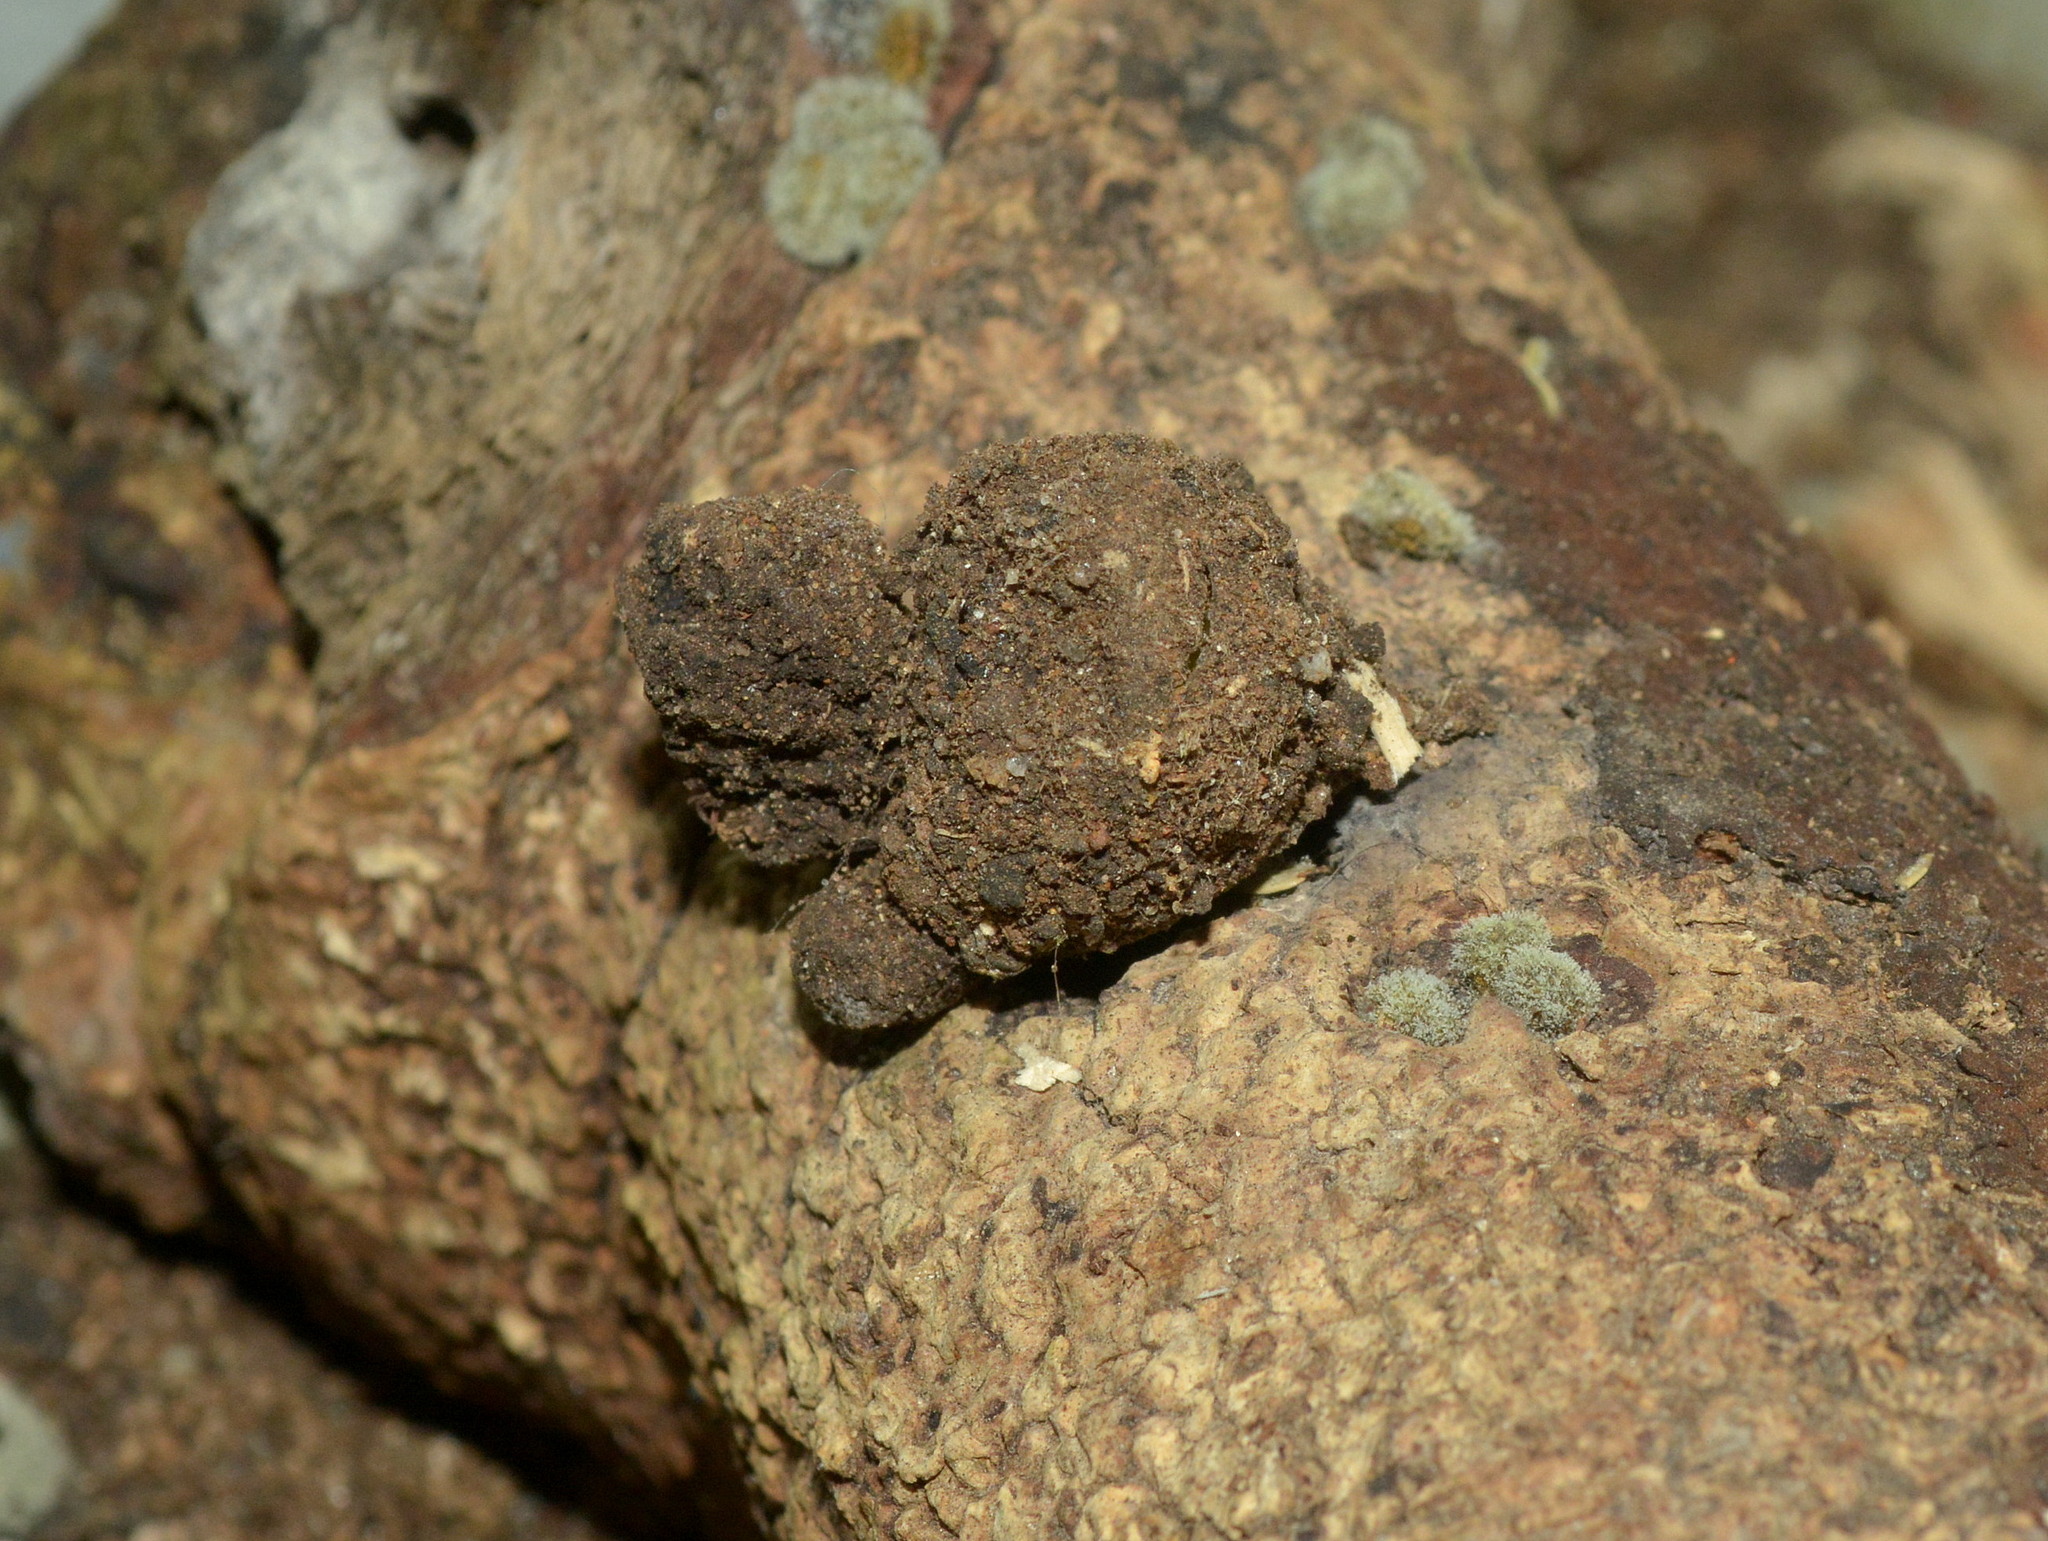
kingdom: Animalia
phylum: Arthropoda
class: Insecta
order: Lepidoptera
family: Notodontidae
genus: Tecmessa
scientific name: Tecmessa annulipes
